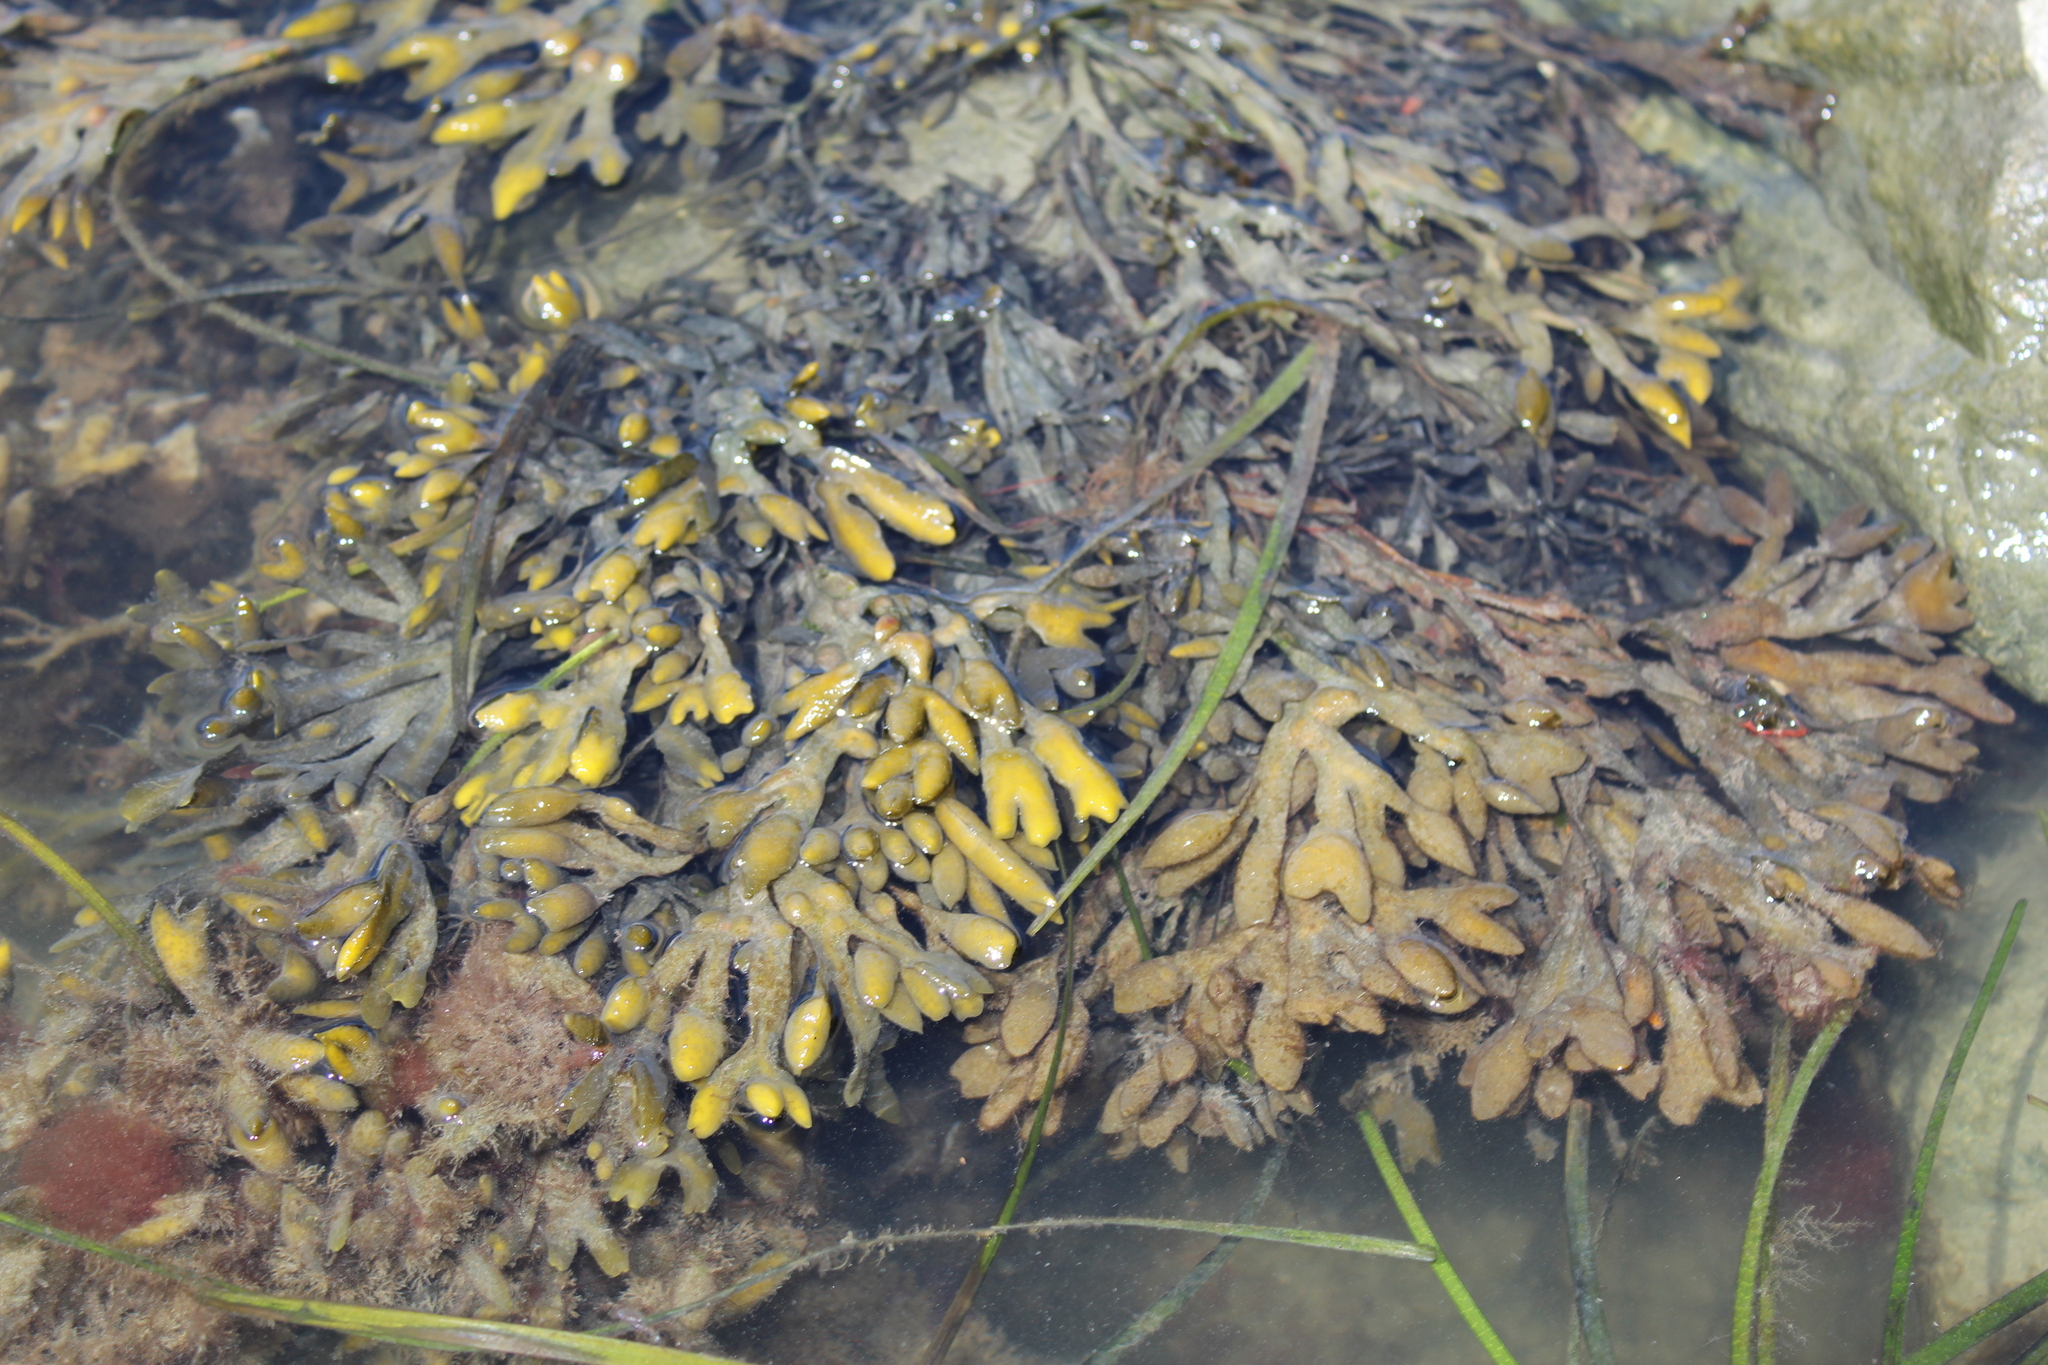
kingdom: Chromista
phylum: Ochrophyta
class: Phaeophyceae
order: Fucales
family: Fucaceae
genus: Fucus
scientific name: Fucus distichus
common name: Rockweed
